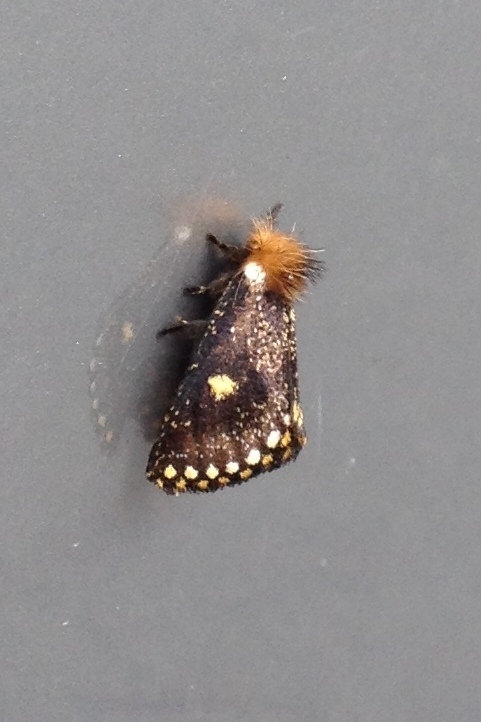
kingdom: Animalia
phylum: Arthropoda
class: Insecta
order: Lepidoptera
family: Notodontidae
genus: Epicoma
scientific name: Epicoma contristis
